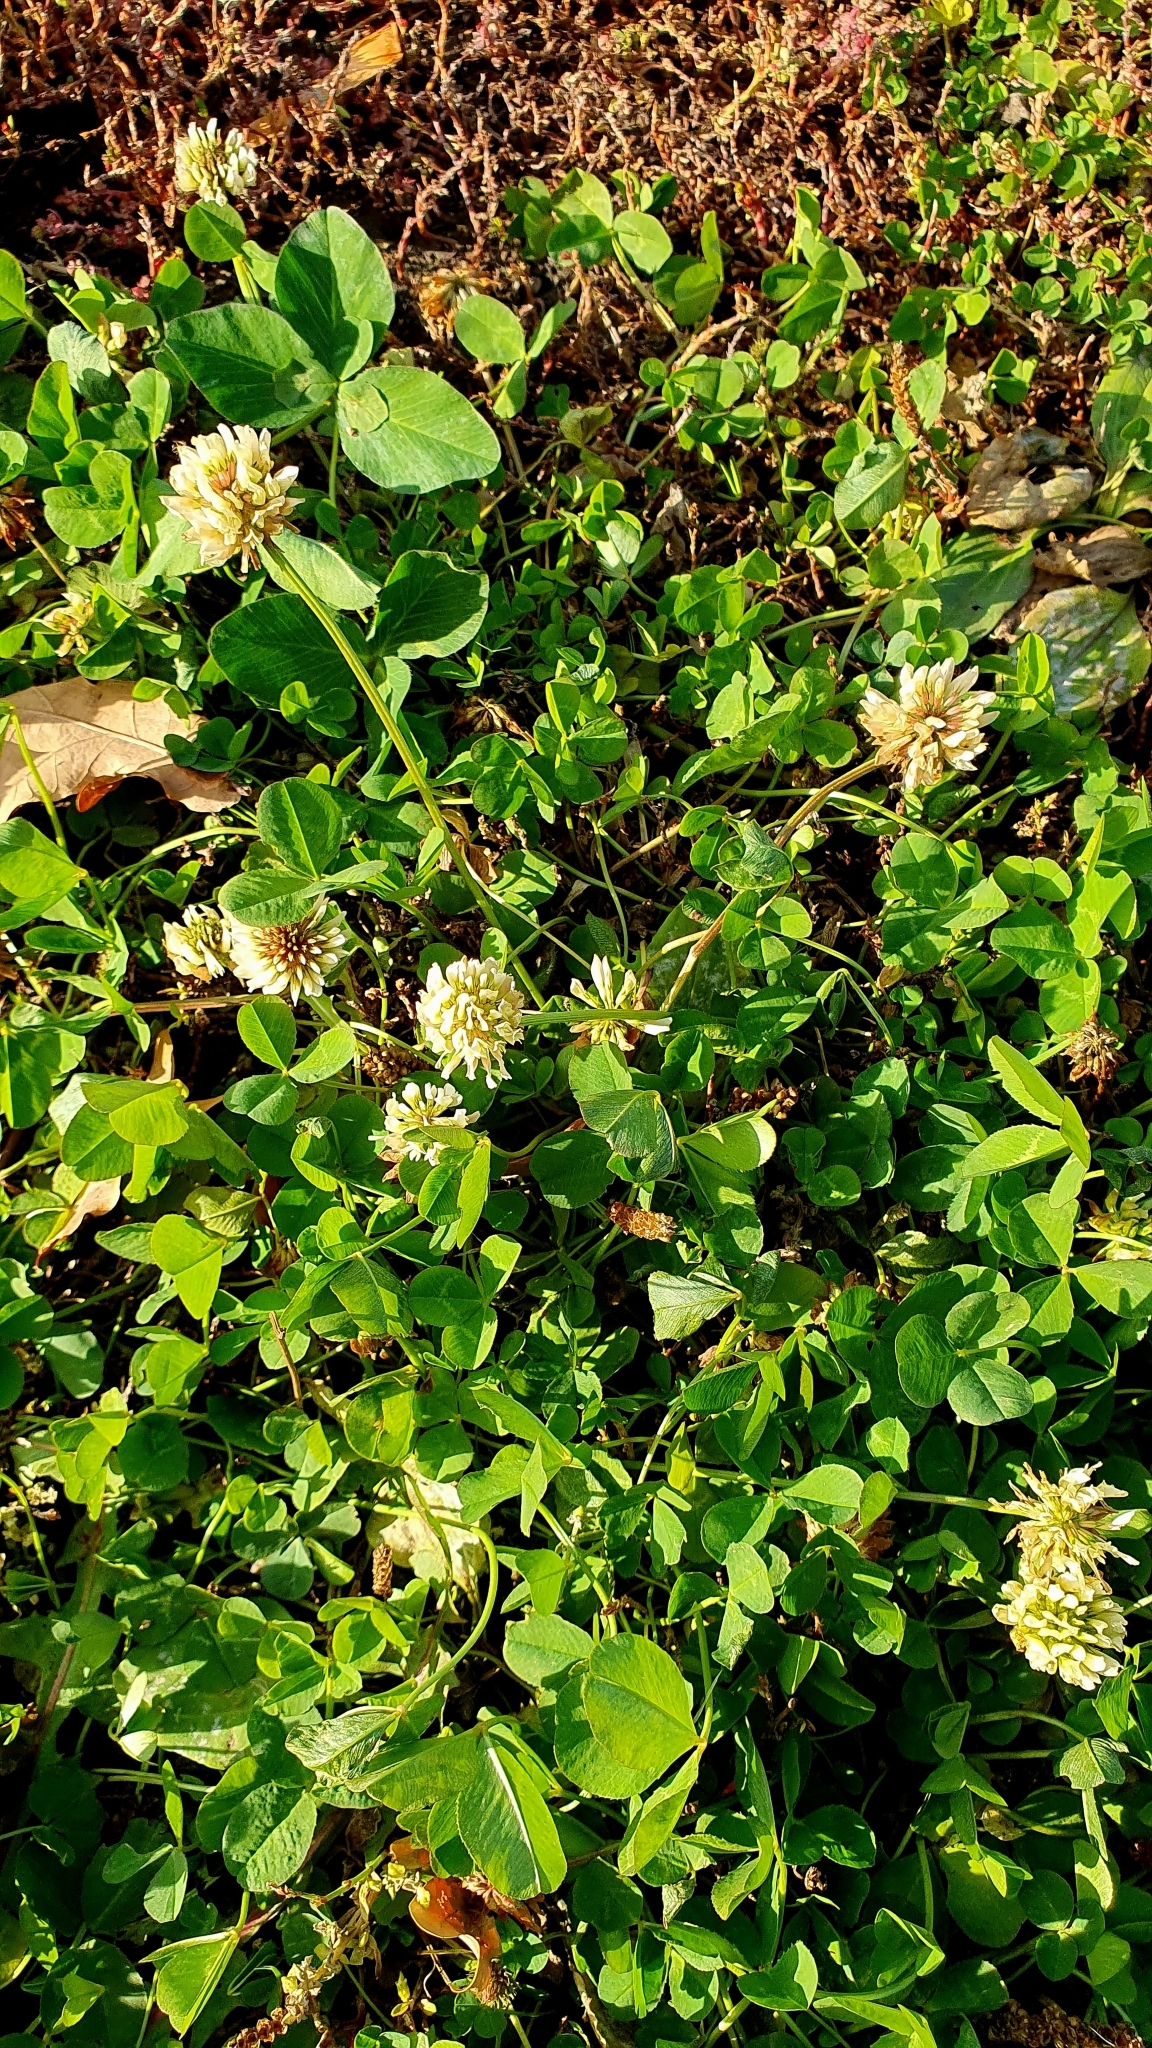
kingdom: Plantae
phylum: Tracheophyta
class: Magnoliopsida
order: Fabales
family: Fabaceae
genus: Trifolium
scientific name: Trifolium repens
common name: White clover
